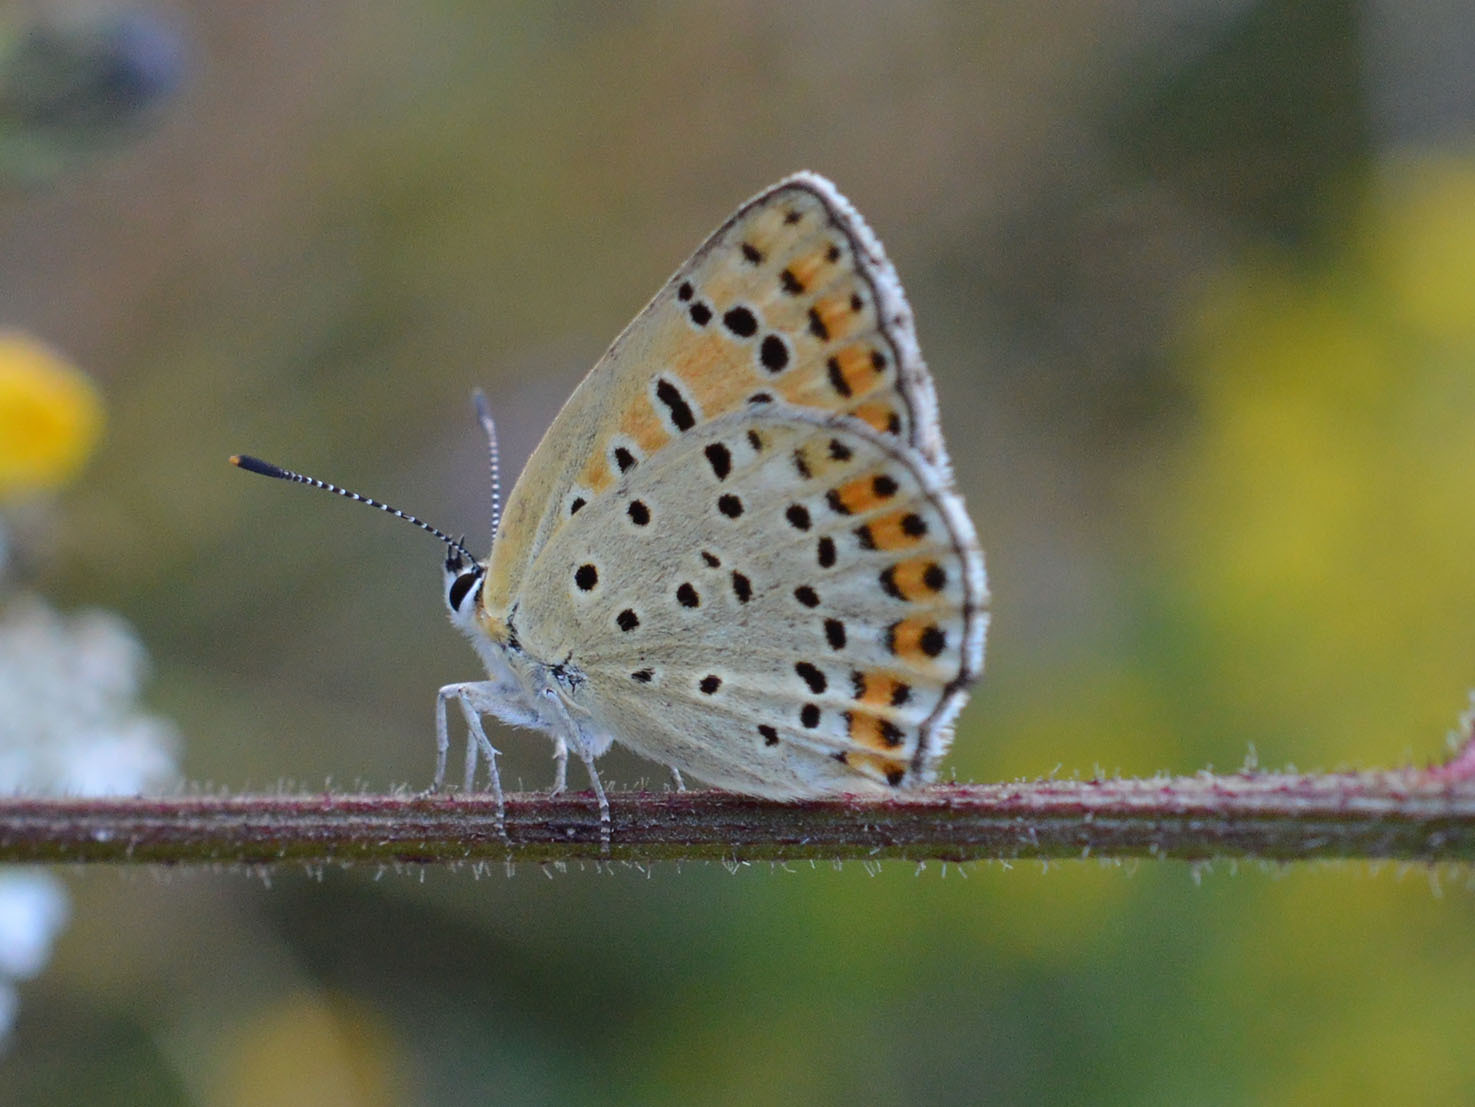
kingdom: Animalia
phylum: Arthropoda
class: Insecta
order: Lepidoptera
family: Lycaenidae
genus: Loweia
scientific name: Loweia tityrus
